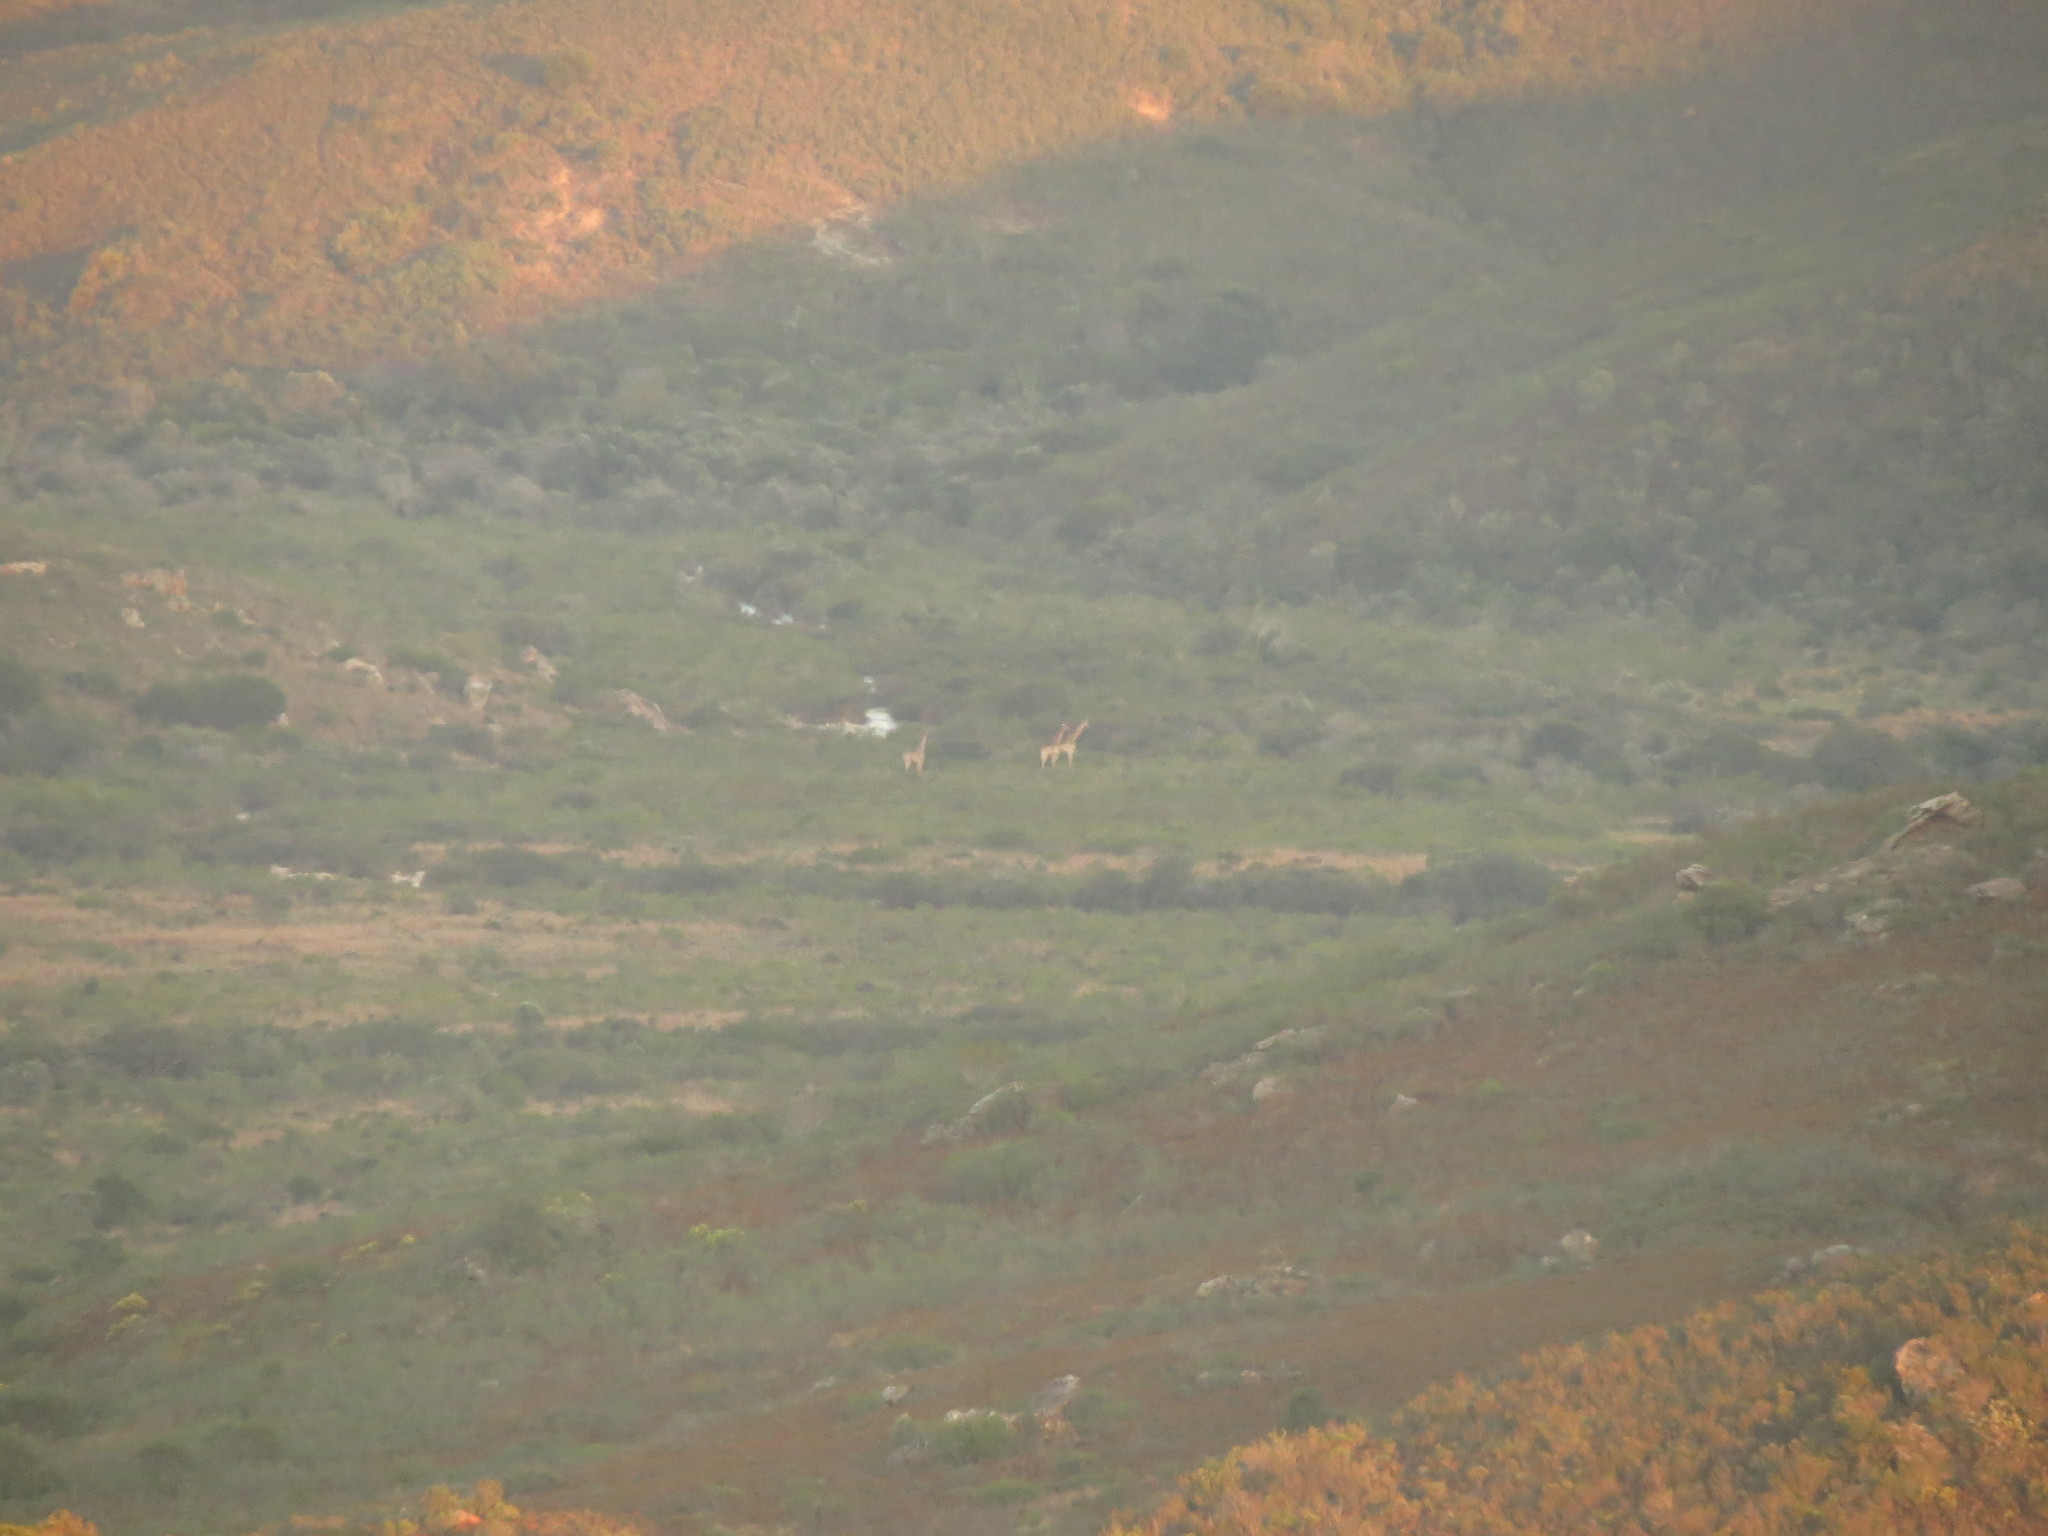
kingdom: Animalia
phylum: Chordata
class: Mammalia
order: Artiodactyla
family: Giraffidae
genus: Giraffa
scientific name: Giraffa giraffa
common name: Southern giraffe
